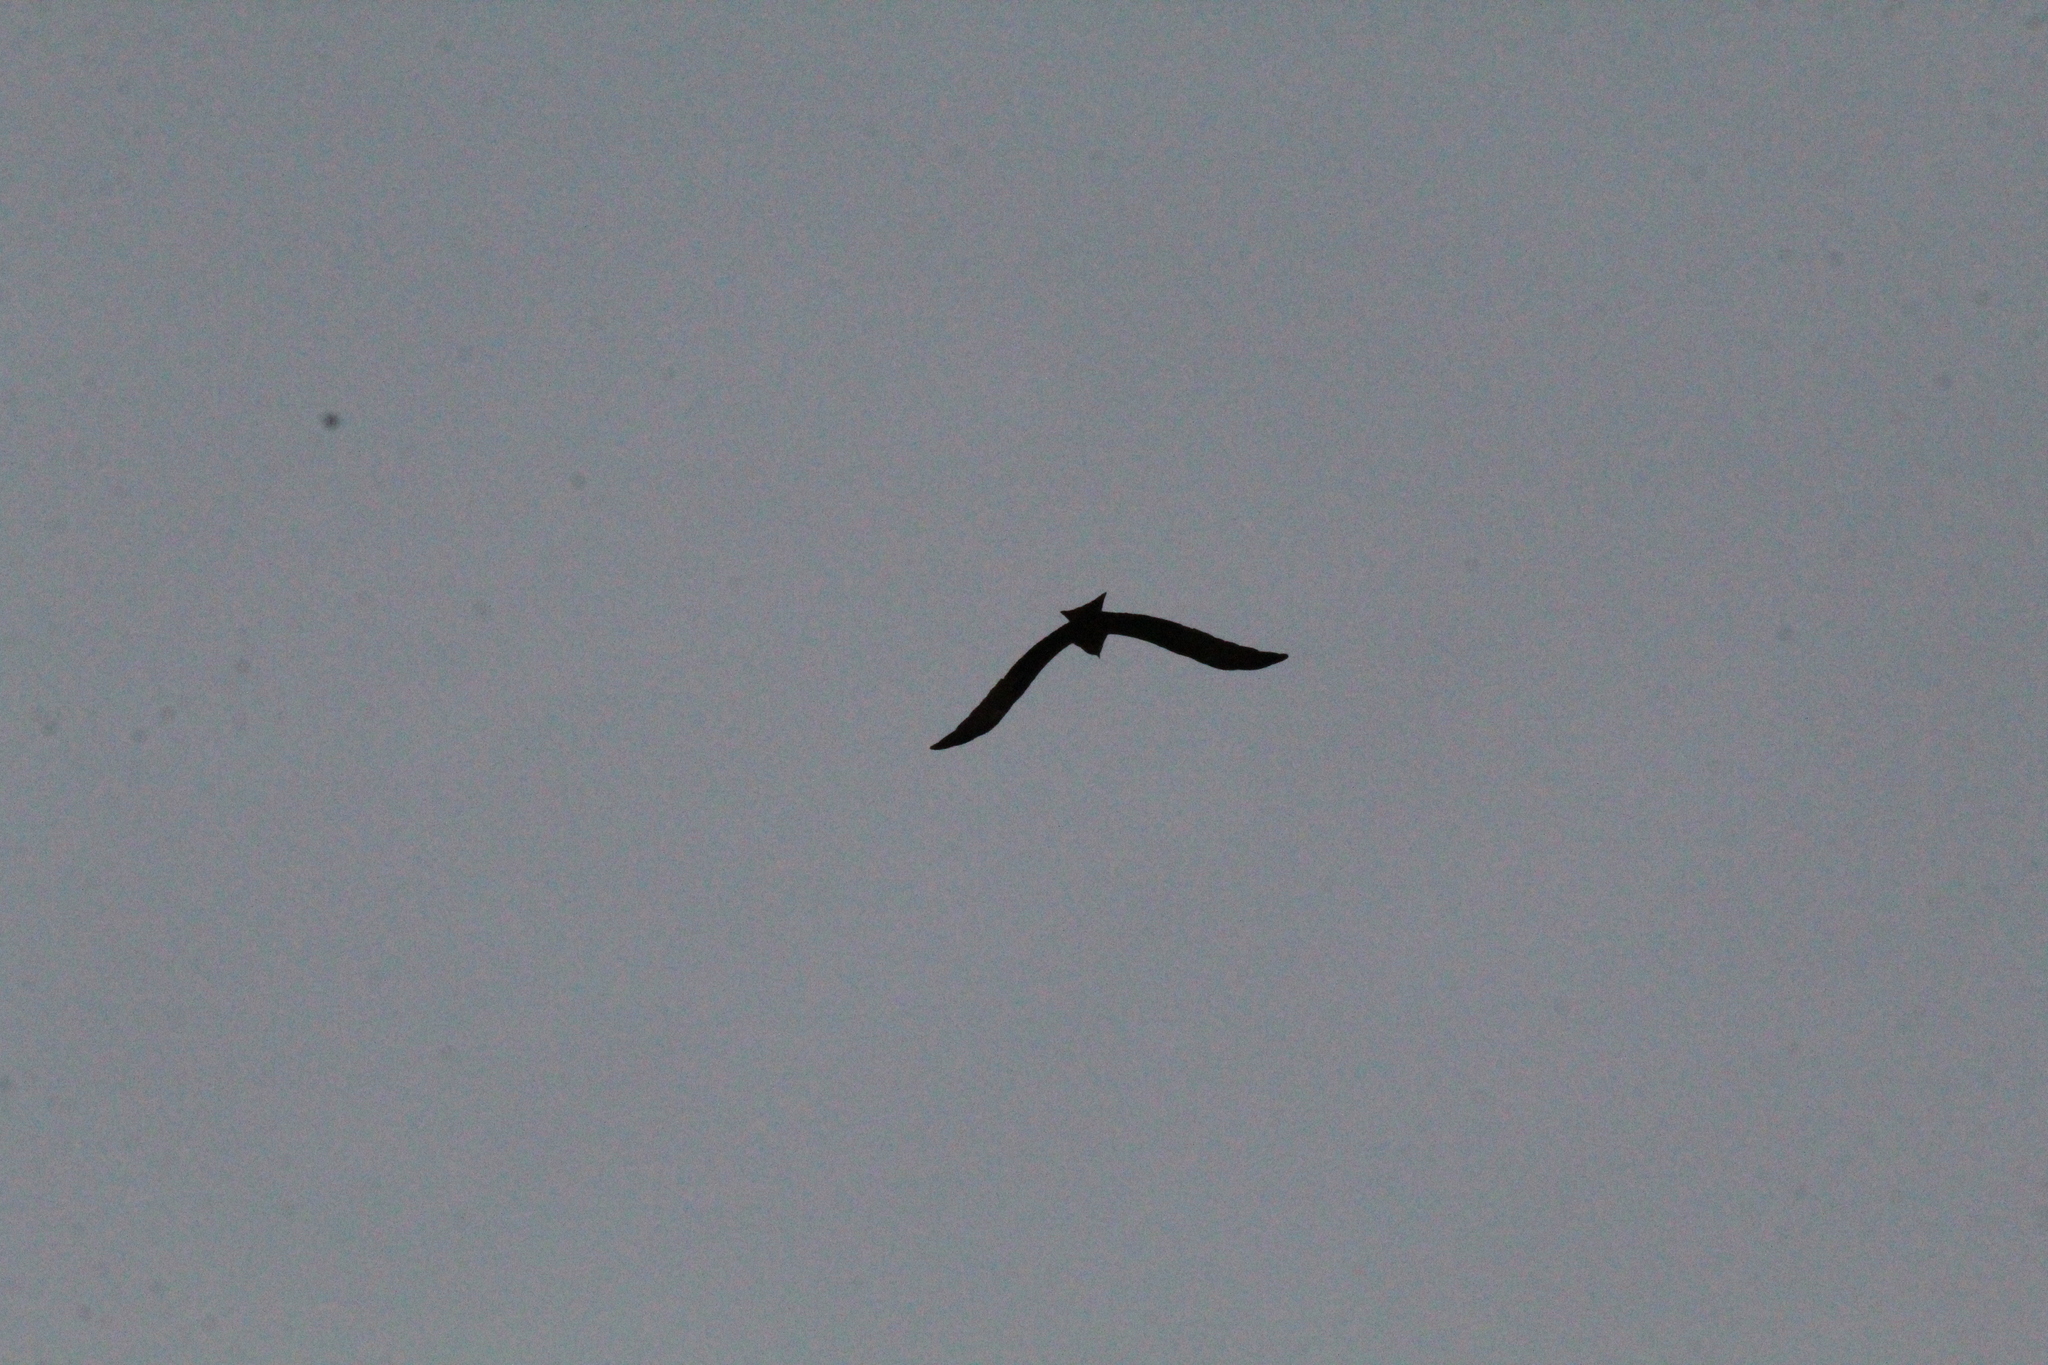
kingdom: Animalia
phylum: Chordata
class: Aves
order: Accipitriformes
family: Accipitridae
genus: Milvus
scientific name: Milvus migrans
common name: Black kite
